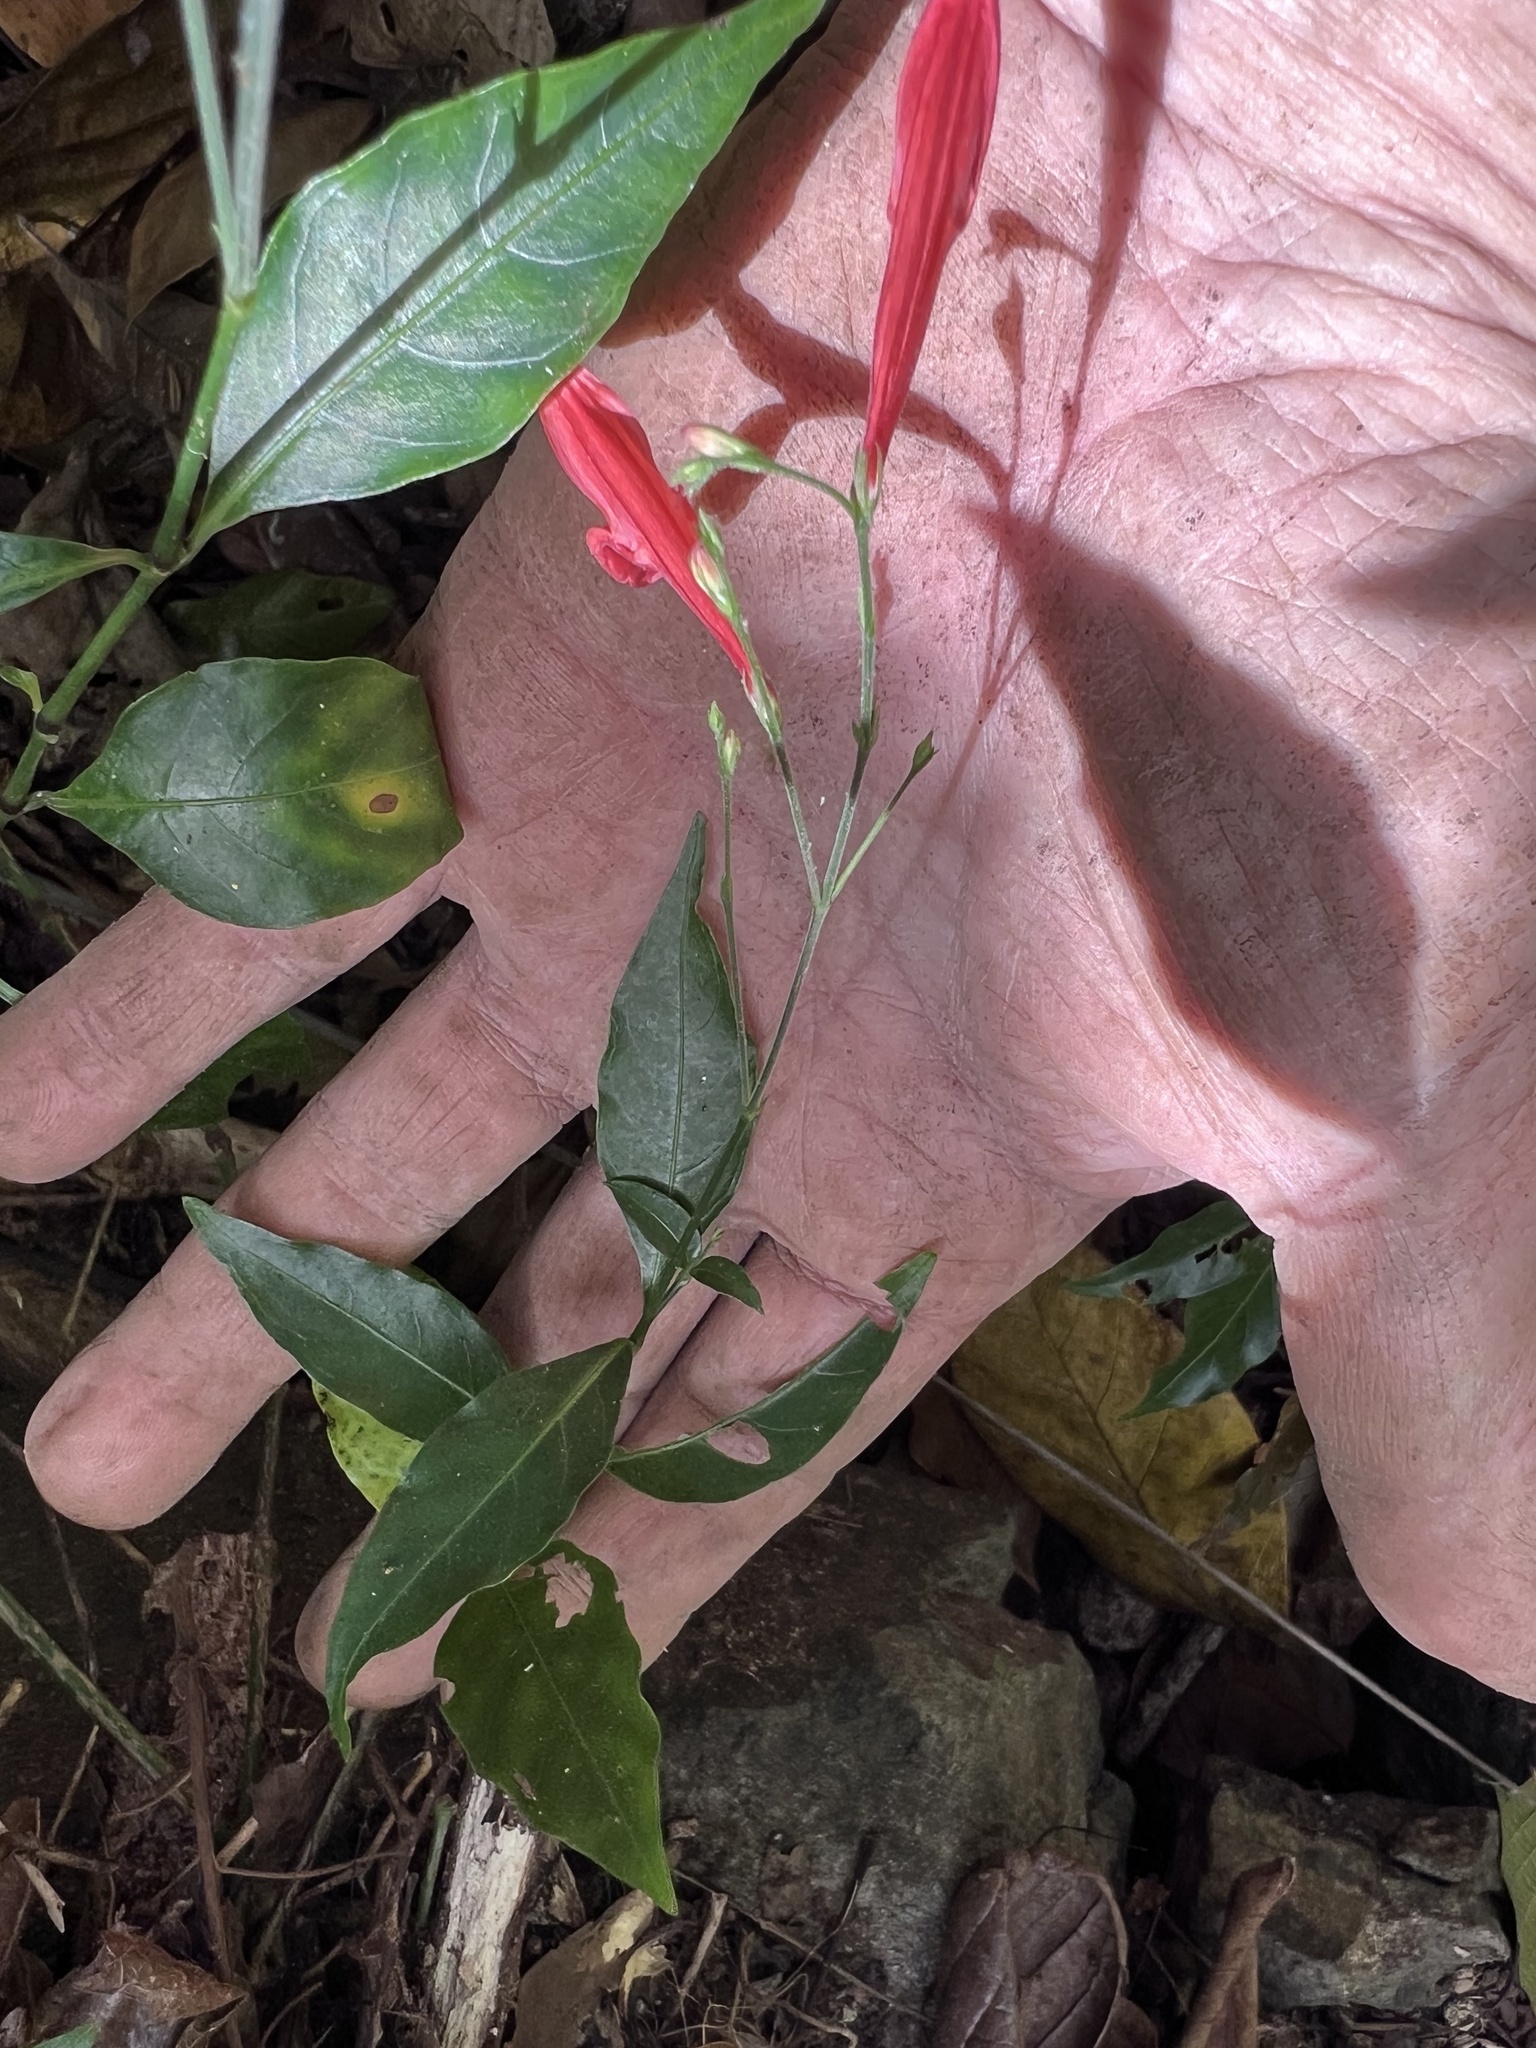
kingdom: Plantae
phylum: Tracheophyta
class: Magnoliopsida
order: Lamiales
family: Acanthaceae
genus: Dianthera
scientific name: Dianthera glabra
